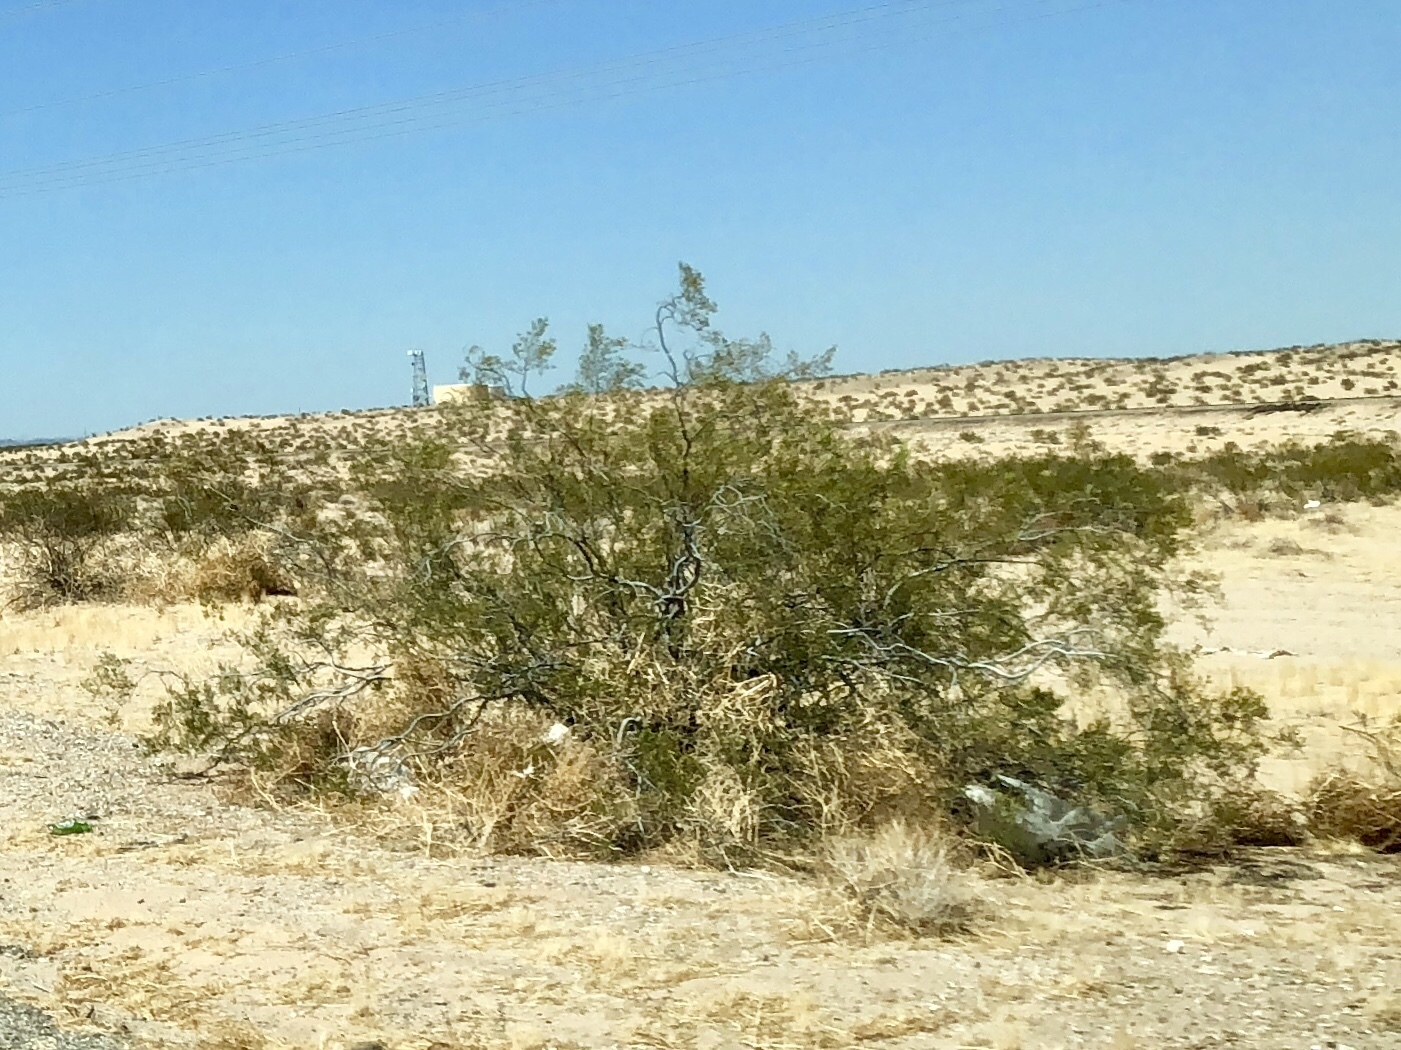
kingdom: Plantae
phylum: Tracheophyta
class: Magnoliopsida
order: Zygophyllales
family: Zygophyllaceae
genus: Larrea
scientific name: Larrea tridentata
